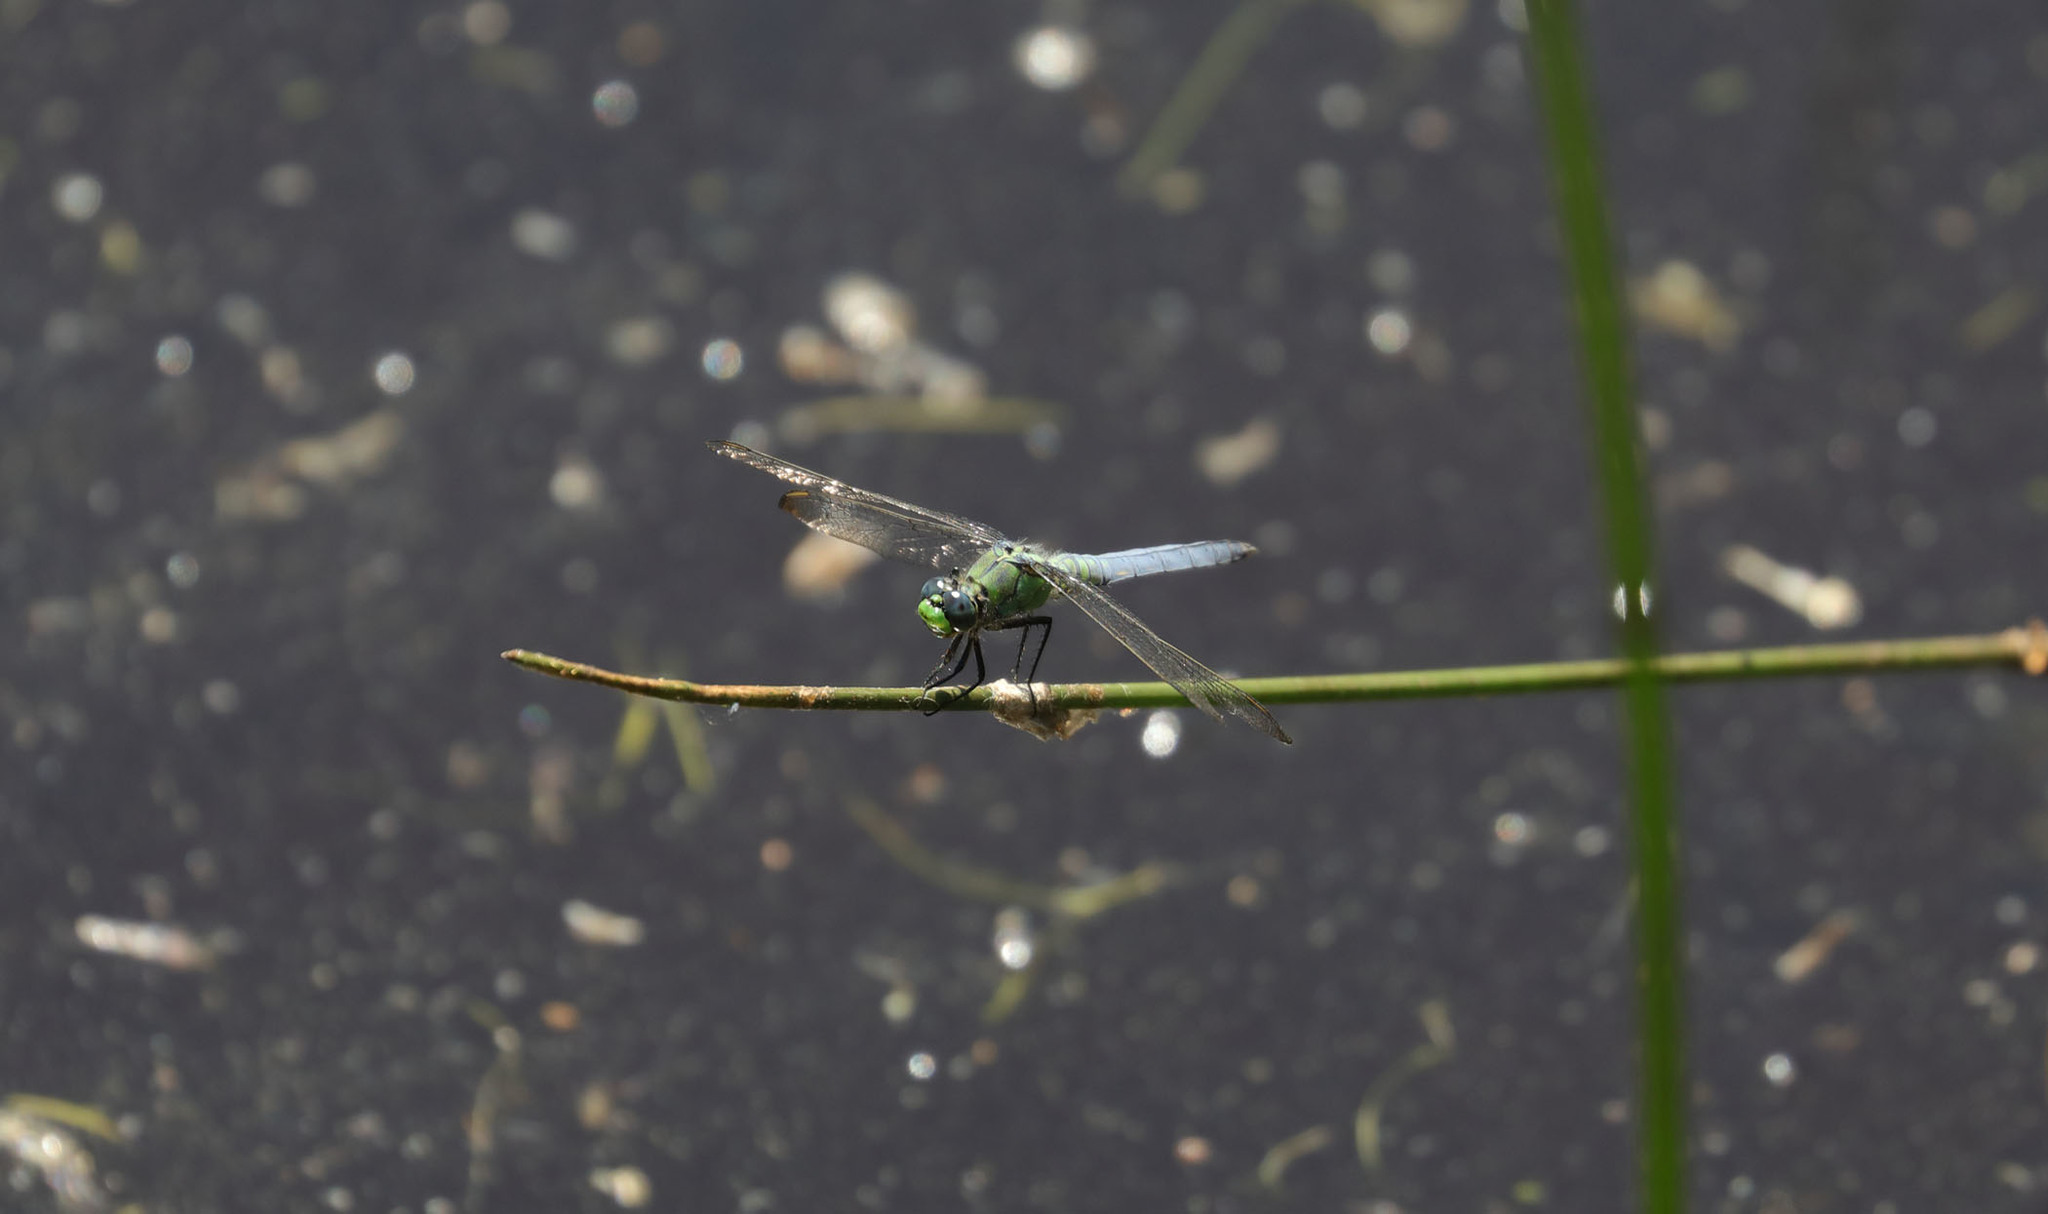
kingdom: Animalia
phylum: Arthropoda
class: Insecta
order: Odonata
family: Libellulidae
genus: Erythemis
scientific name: Erythemis collocata
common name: Western pondhawk
